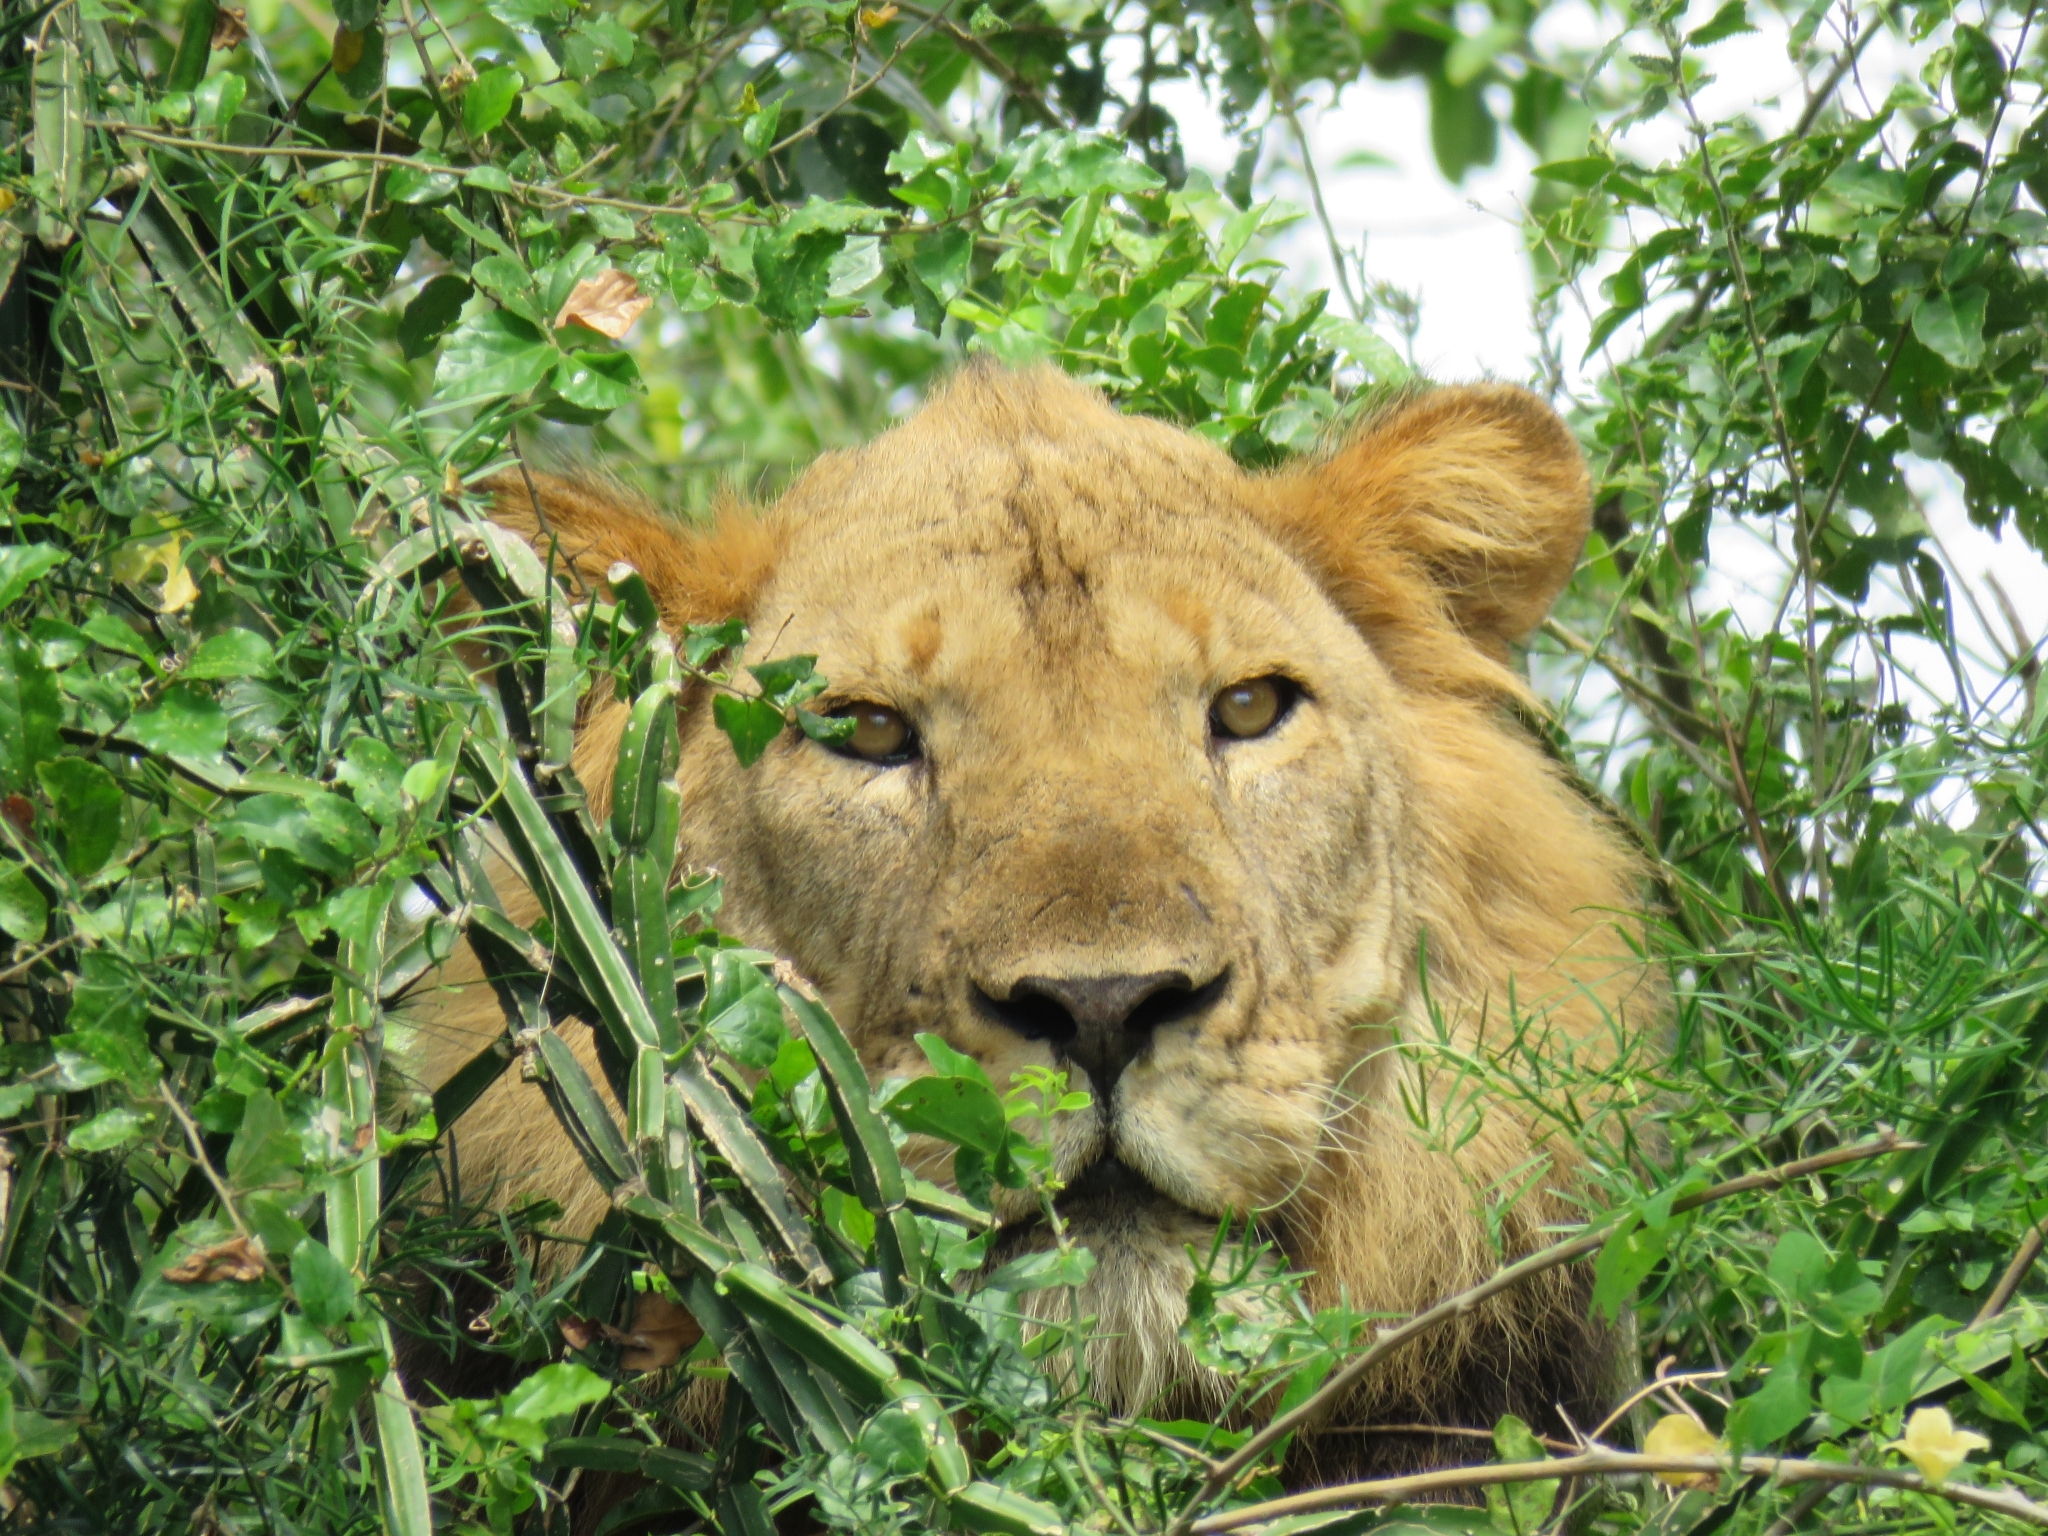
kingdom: Animalia
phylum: Chordata
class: Mammalia
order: Carnivora
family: Felidae
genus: Panthera
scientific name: Panthera leo
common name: Lion
